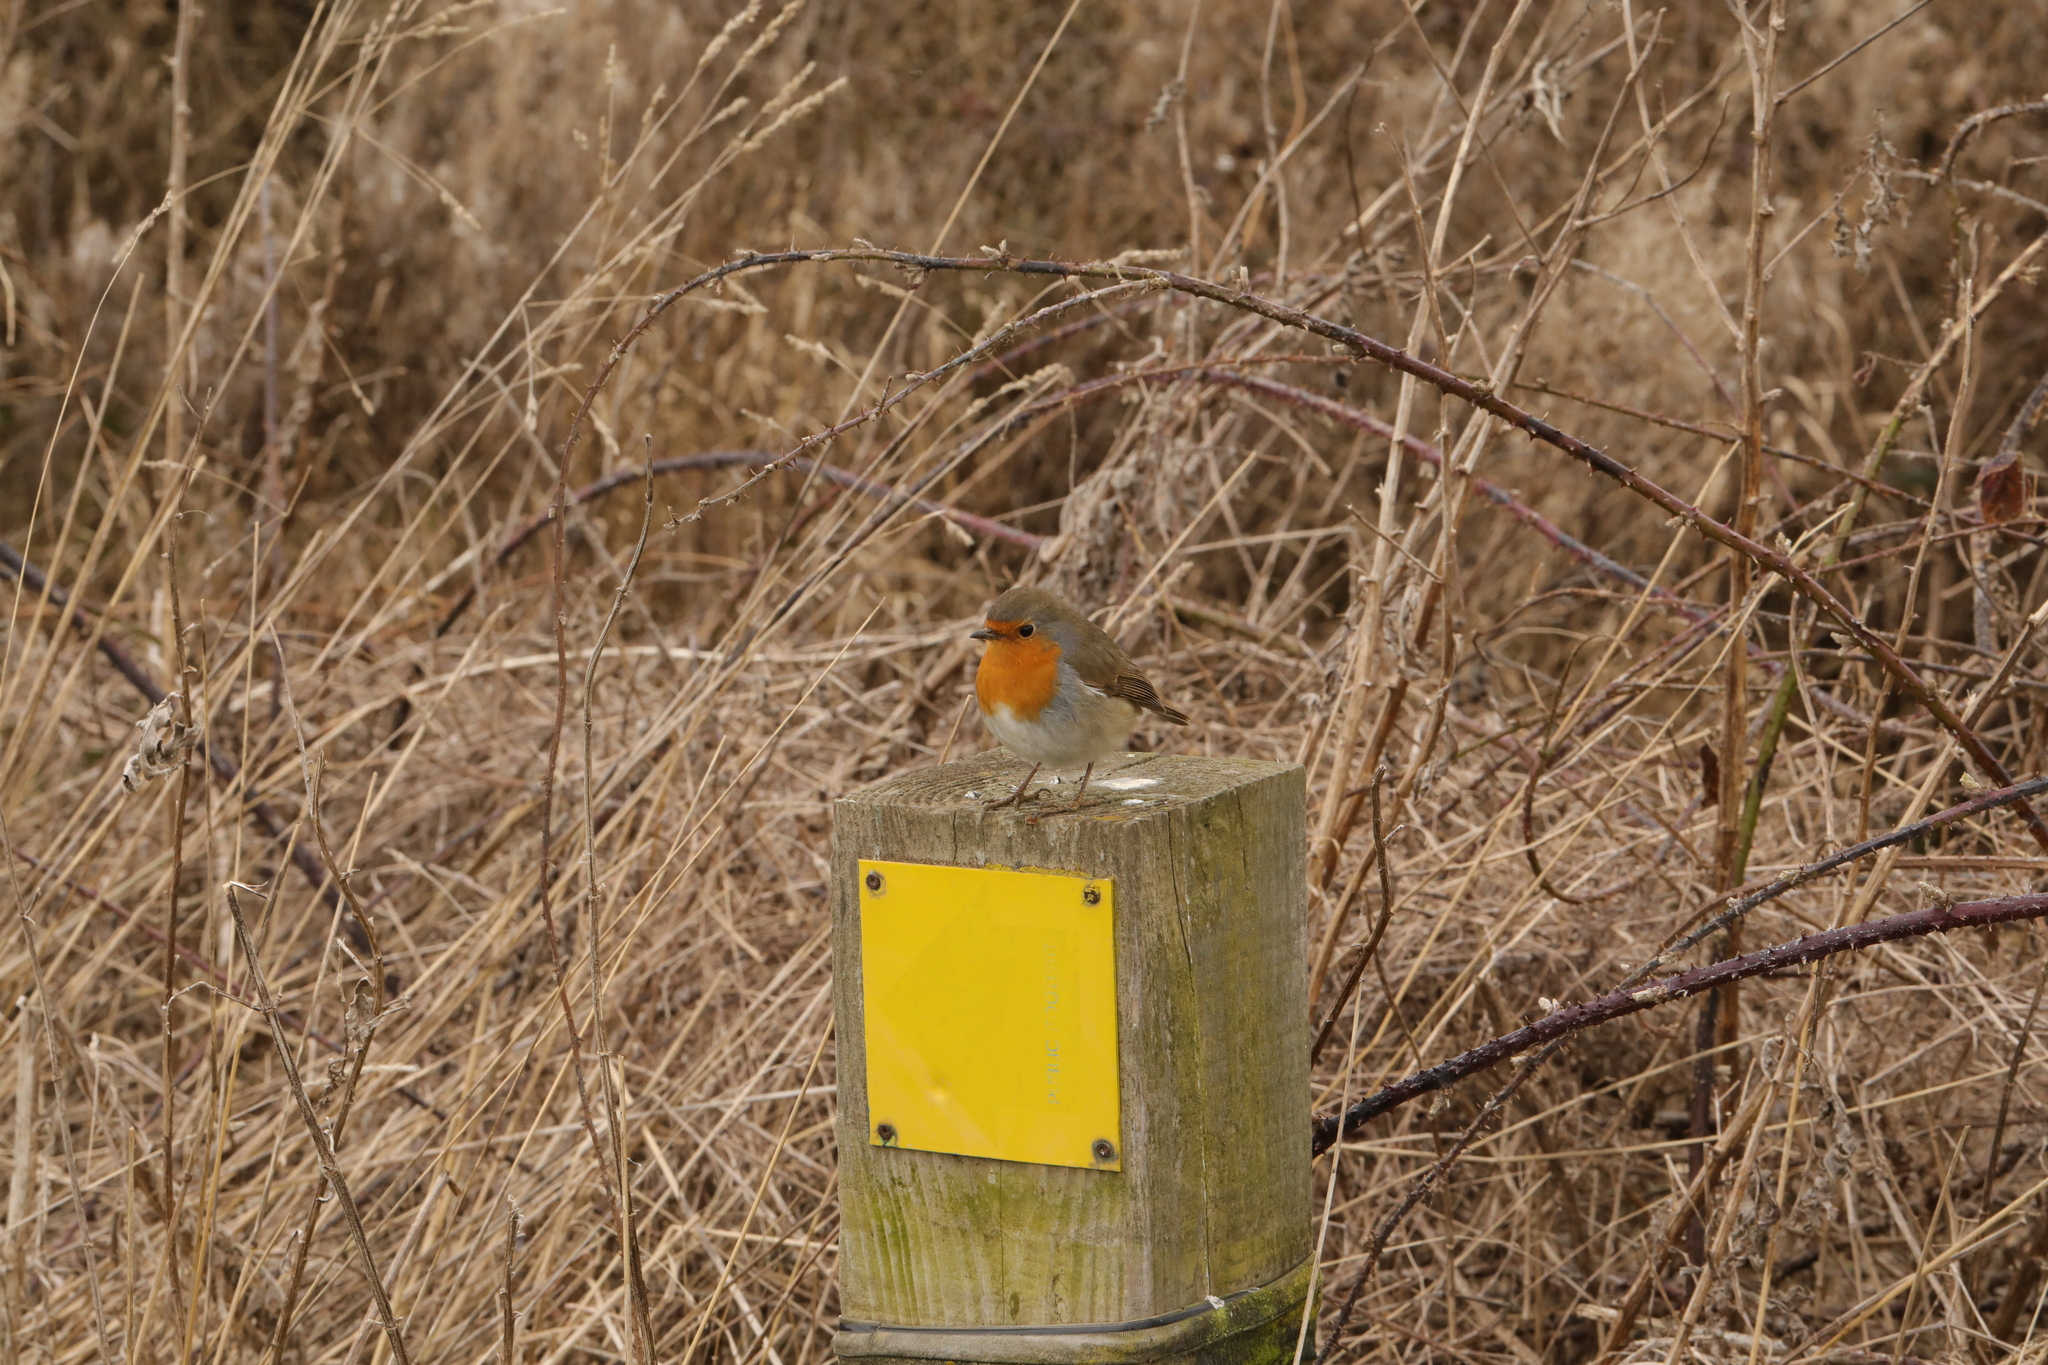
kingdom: Animalia
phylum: Chordata
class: Aves
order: Passeriformes
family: Muscicapidae
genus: Erithacus
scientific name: Erithacus rubecula
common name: European robin
